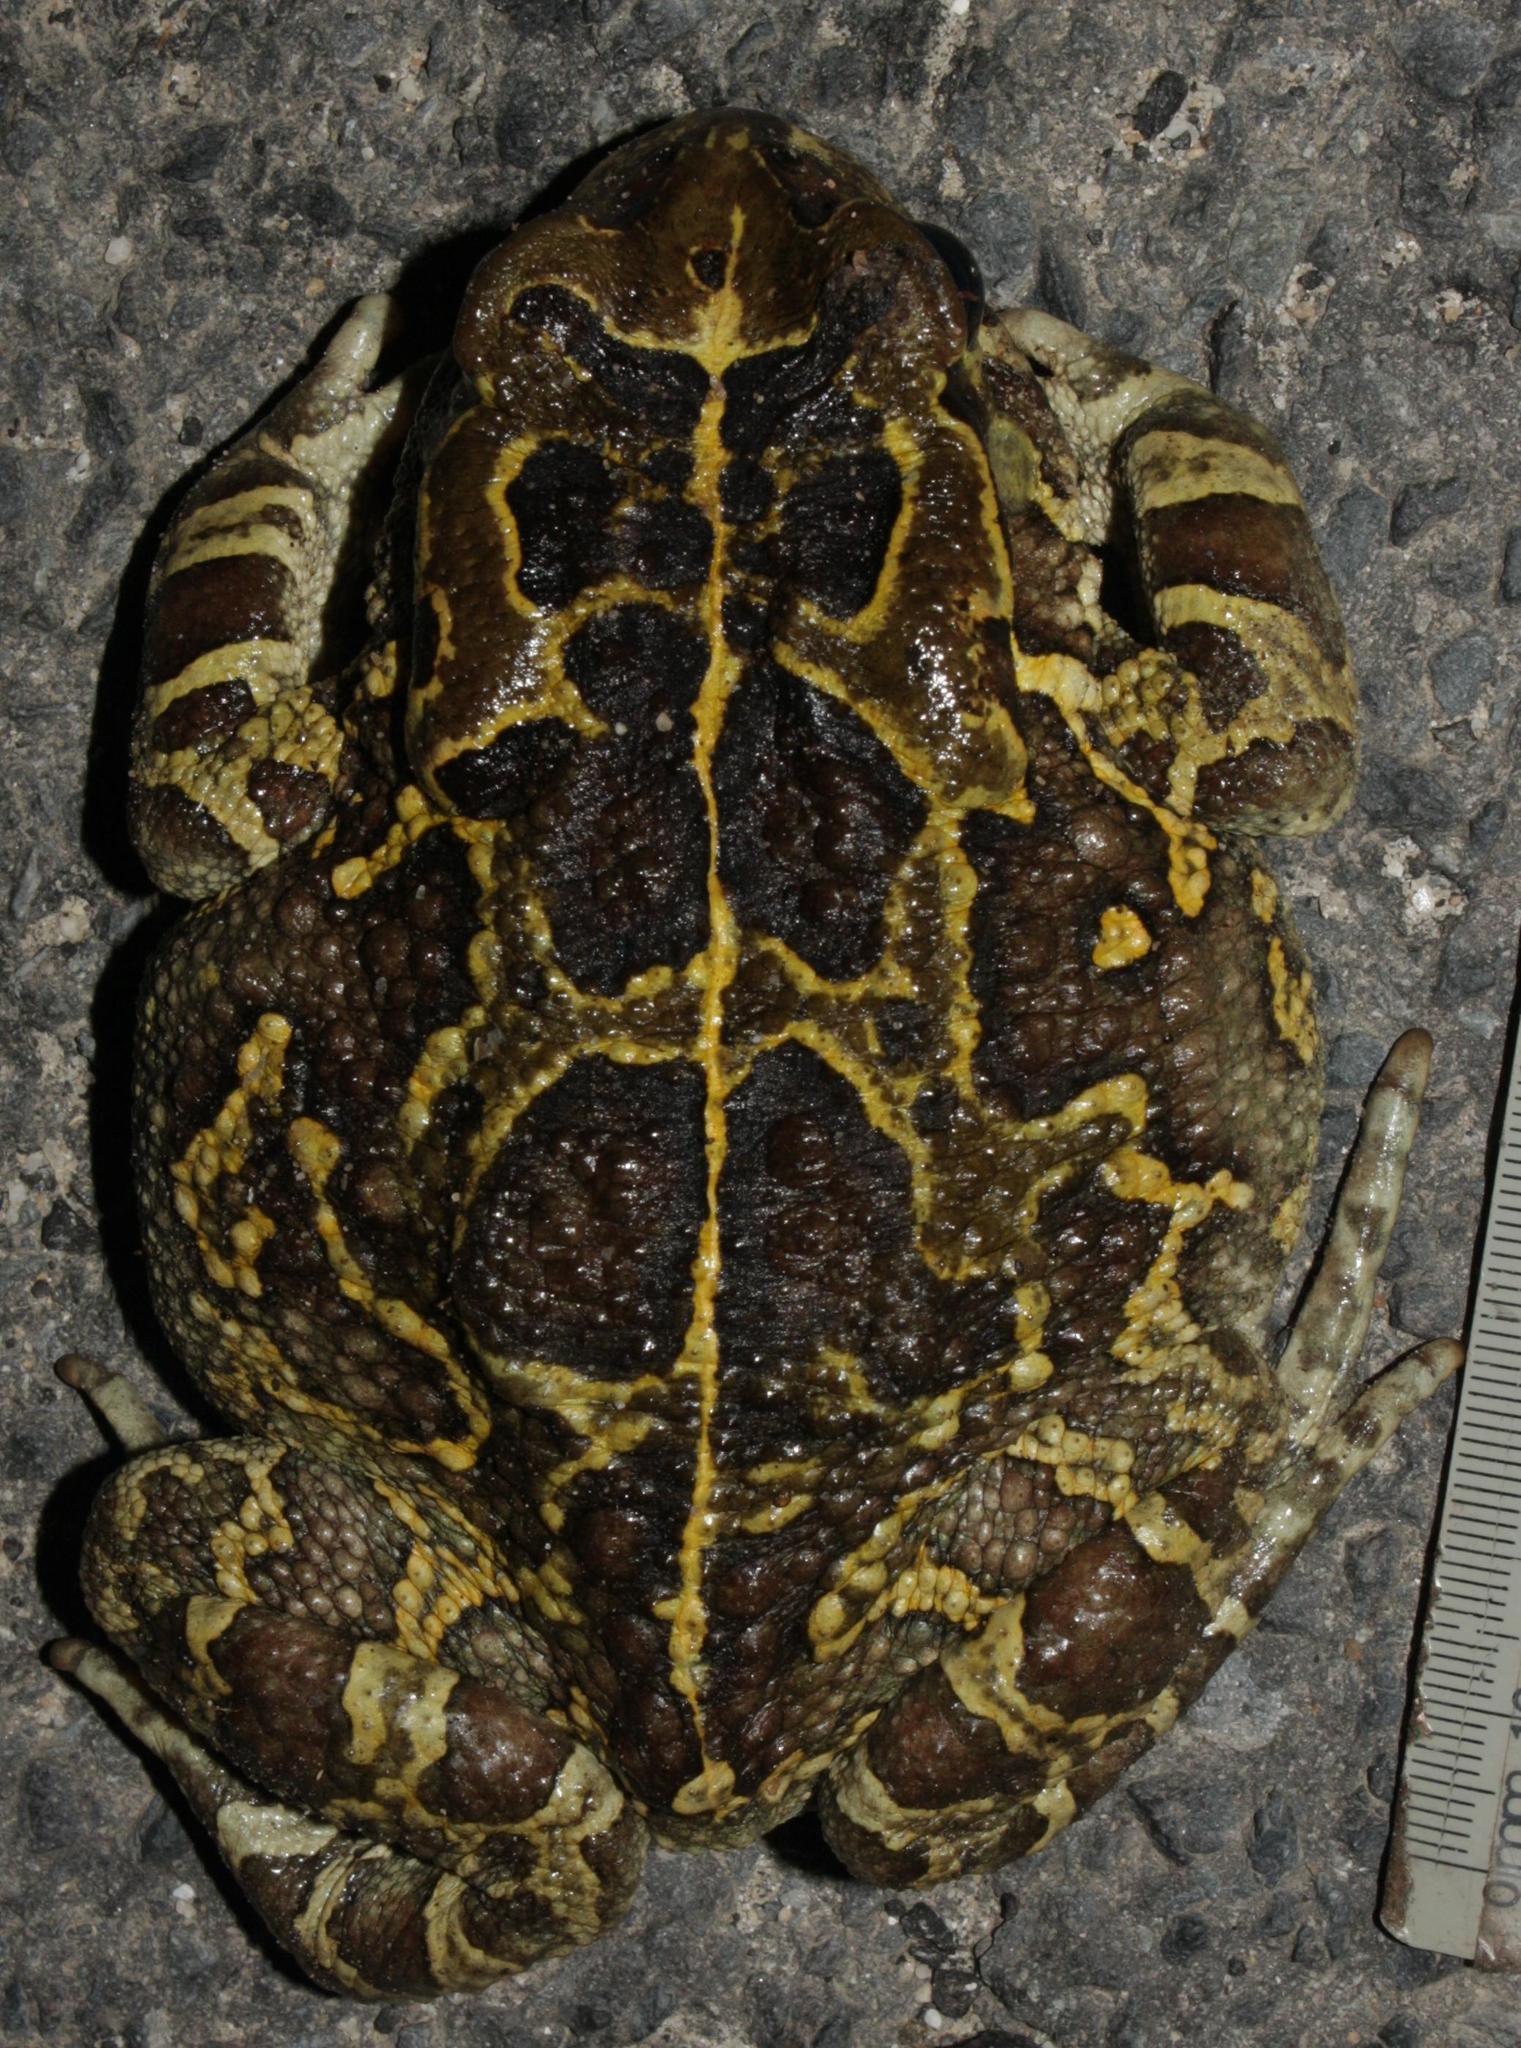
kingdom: Animalia
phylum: Chordata
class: Amphibia
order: Anura
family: Bufonidae
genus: Sclerophrys
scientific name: Sclerophrys pantherina
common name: Panther toad
